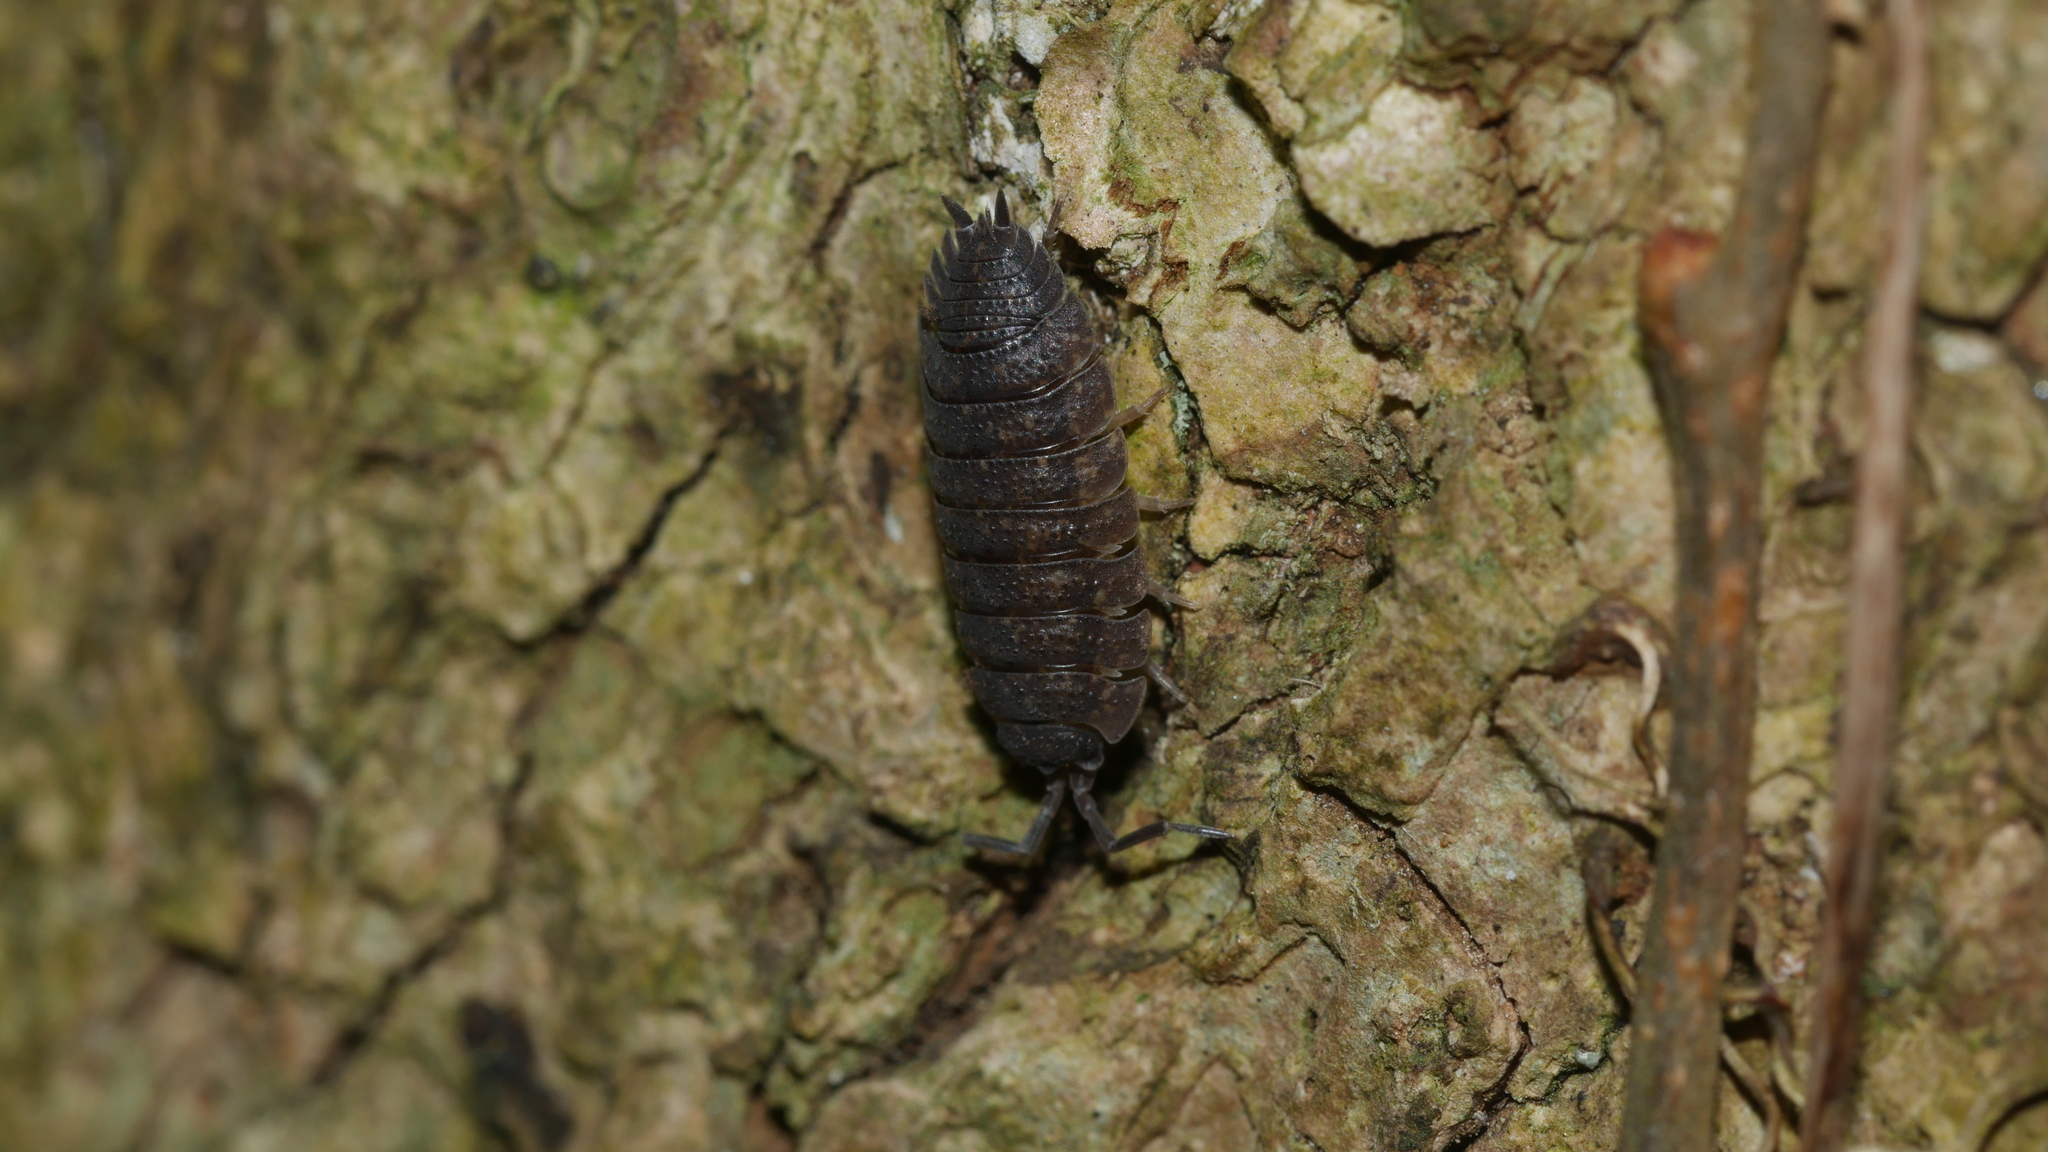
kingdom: Animalia
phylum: Arthropoda
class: Malacostraca
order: Isopoda
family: Porcellionidae
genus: Porcellio
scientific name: Porcellio scaber
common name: Common rough woodlouse
